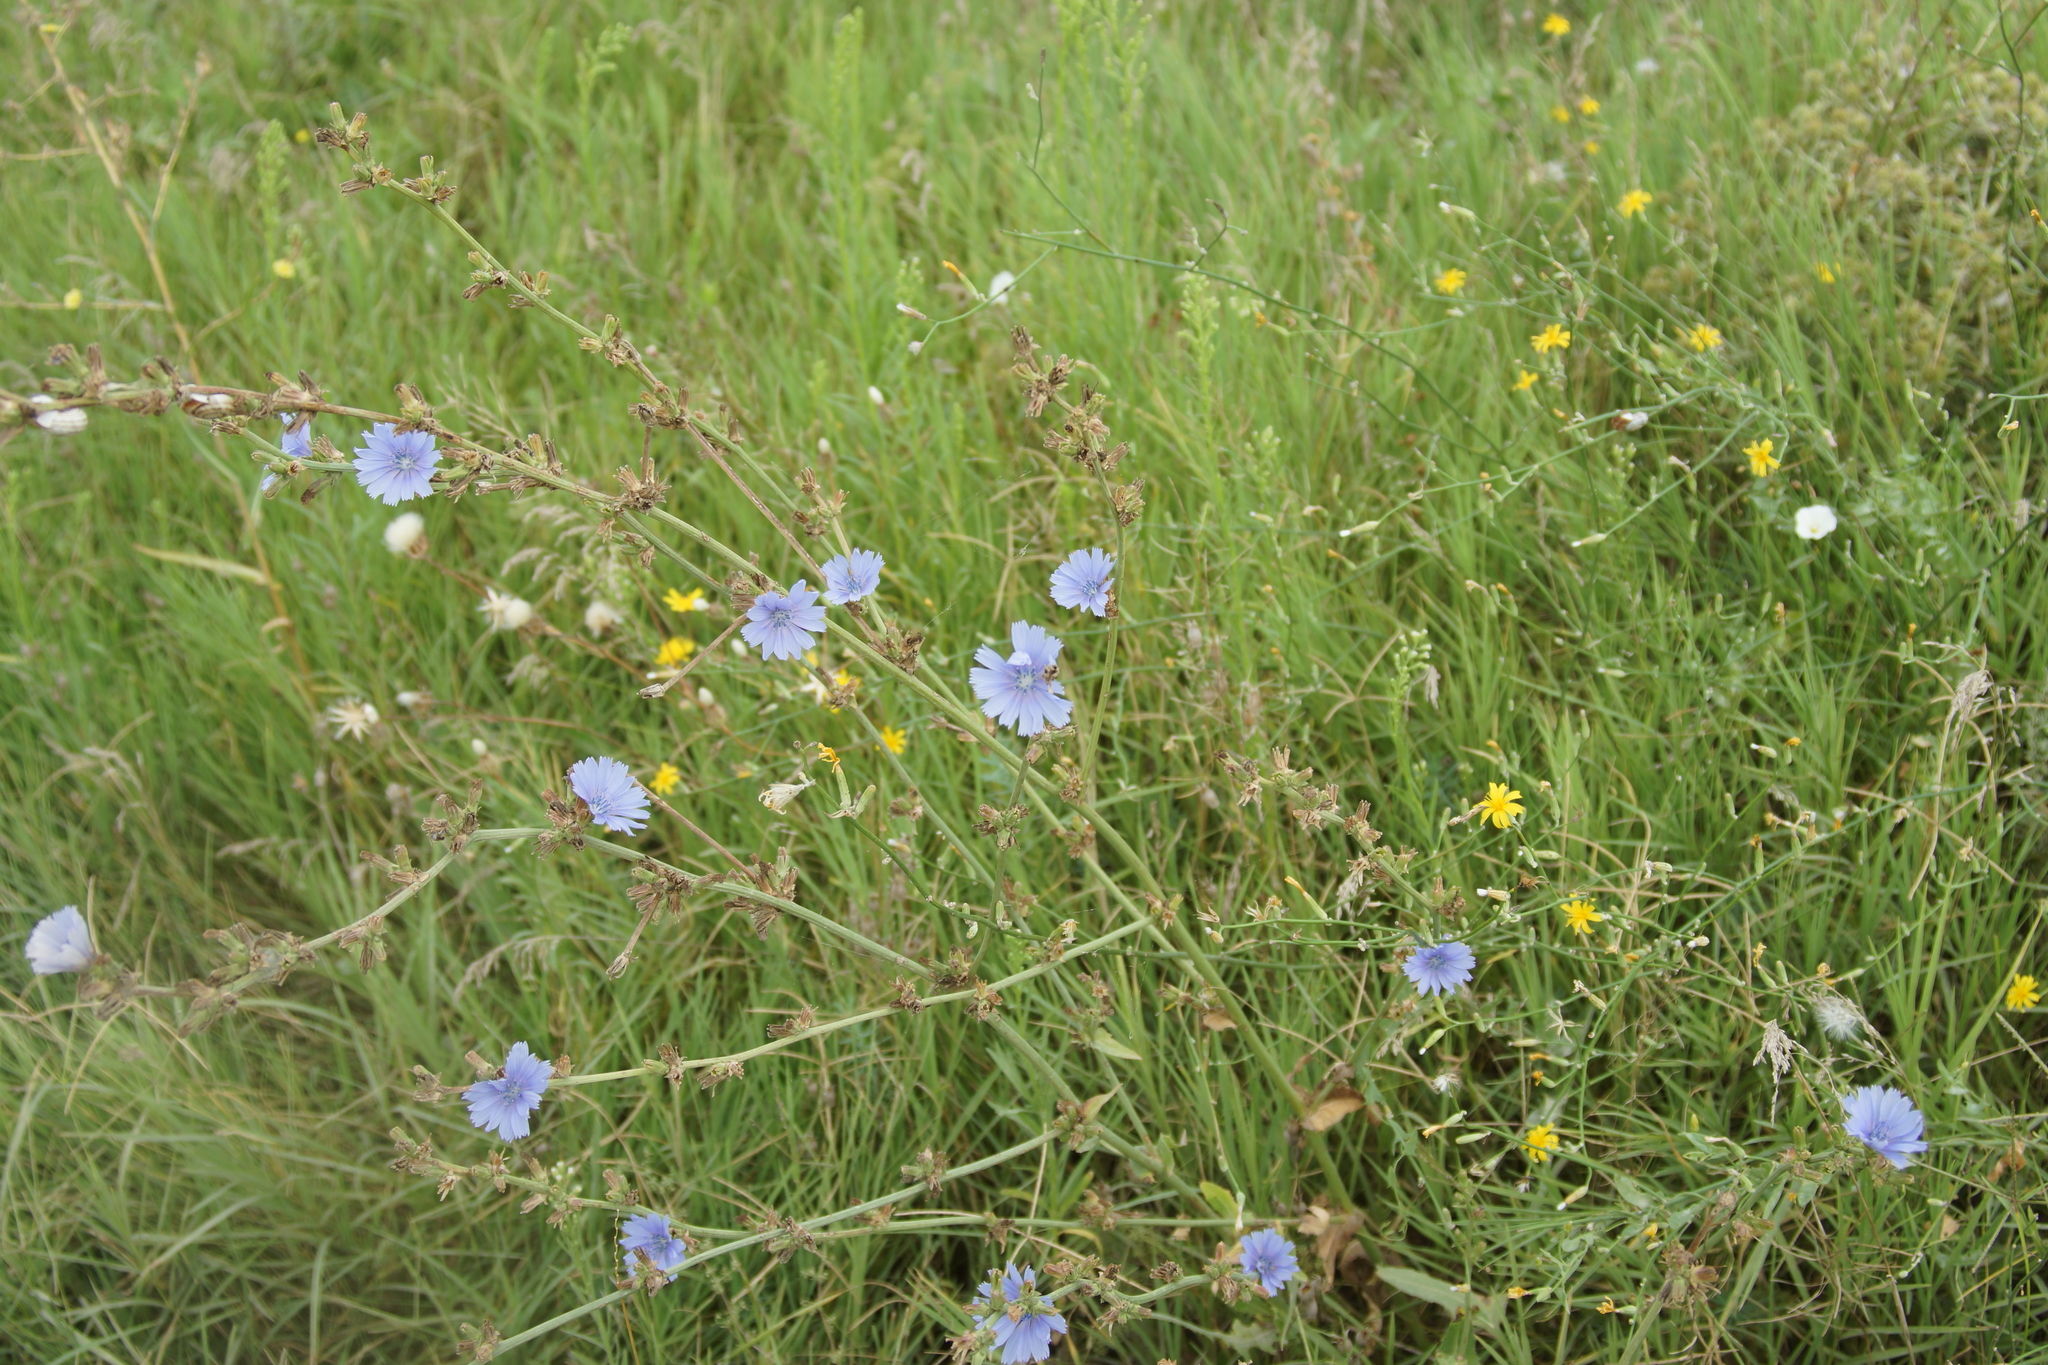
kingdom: Plantae
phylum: Tracheophyta
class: Magnoliopsida
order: Asterales
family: Asteraceae
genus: Cichorium
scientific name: Cichorium intybus
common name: Chicory
